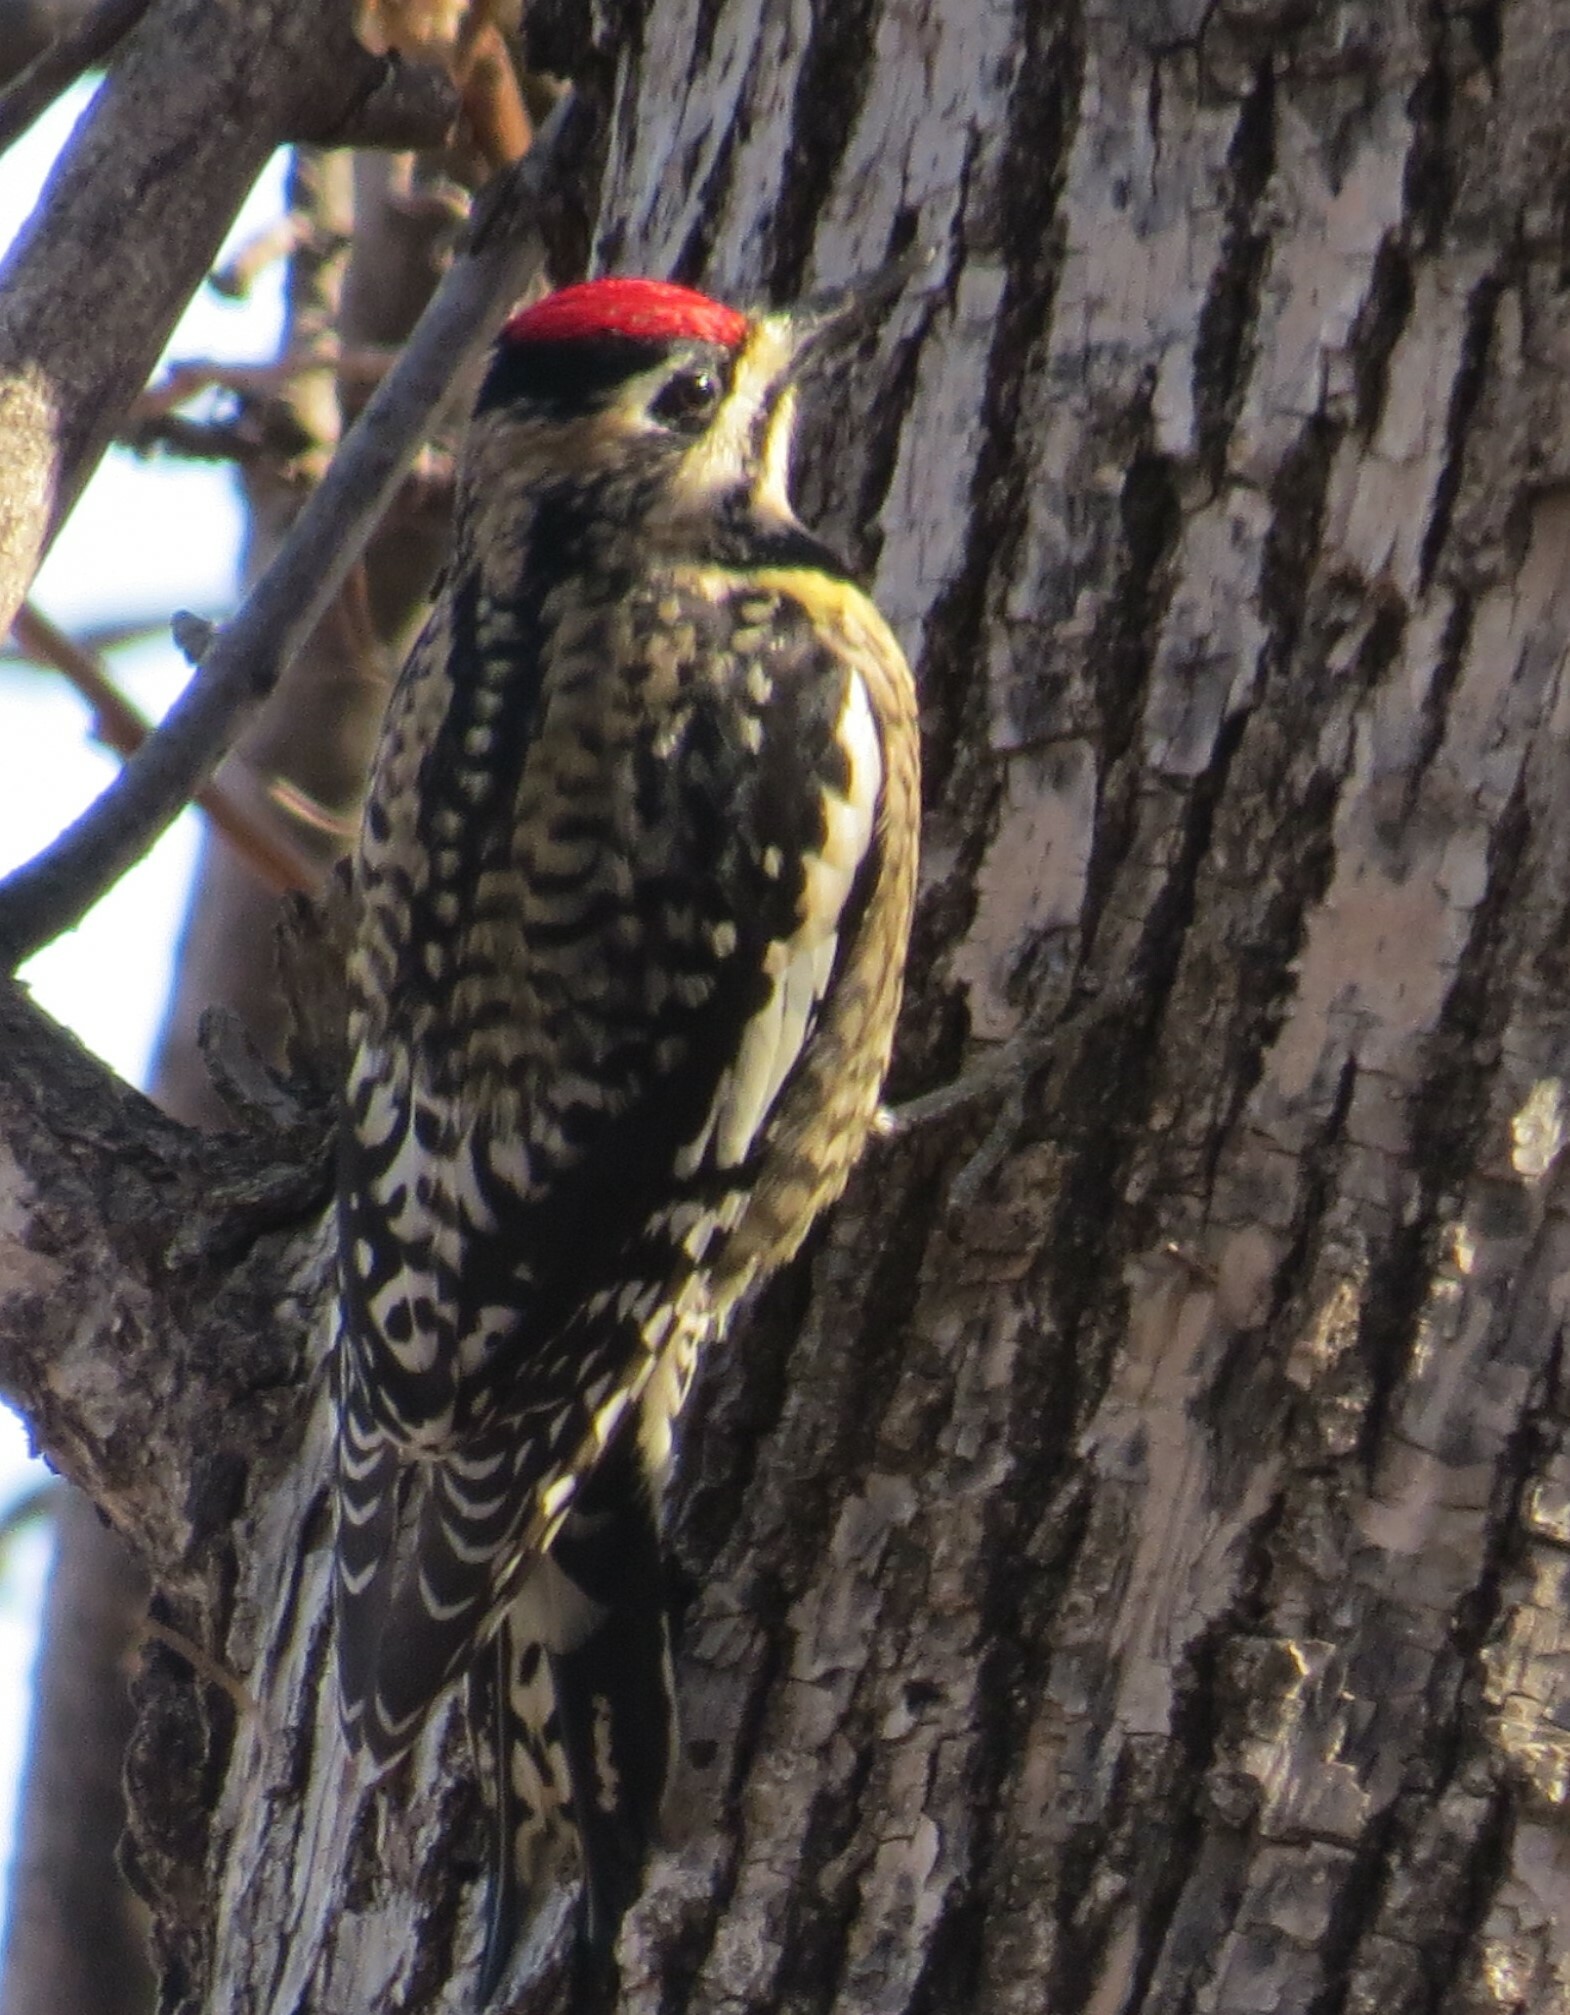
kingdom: Animalia
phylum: Chordata
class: Aves
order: Piciformes
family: Picidae
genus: Sphyrapicus
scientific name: Sphyrapicus varius
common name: Yellow-bellied sapsucker
